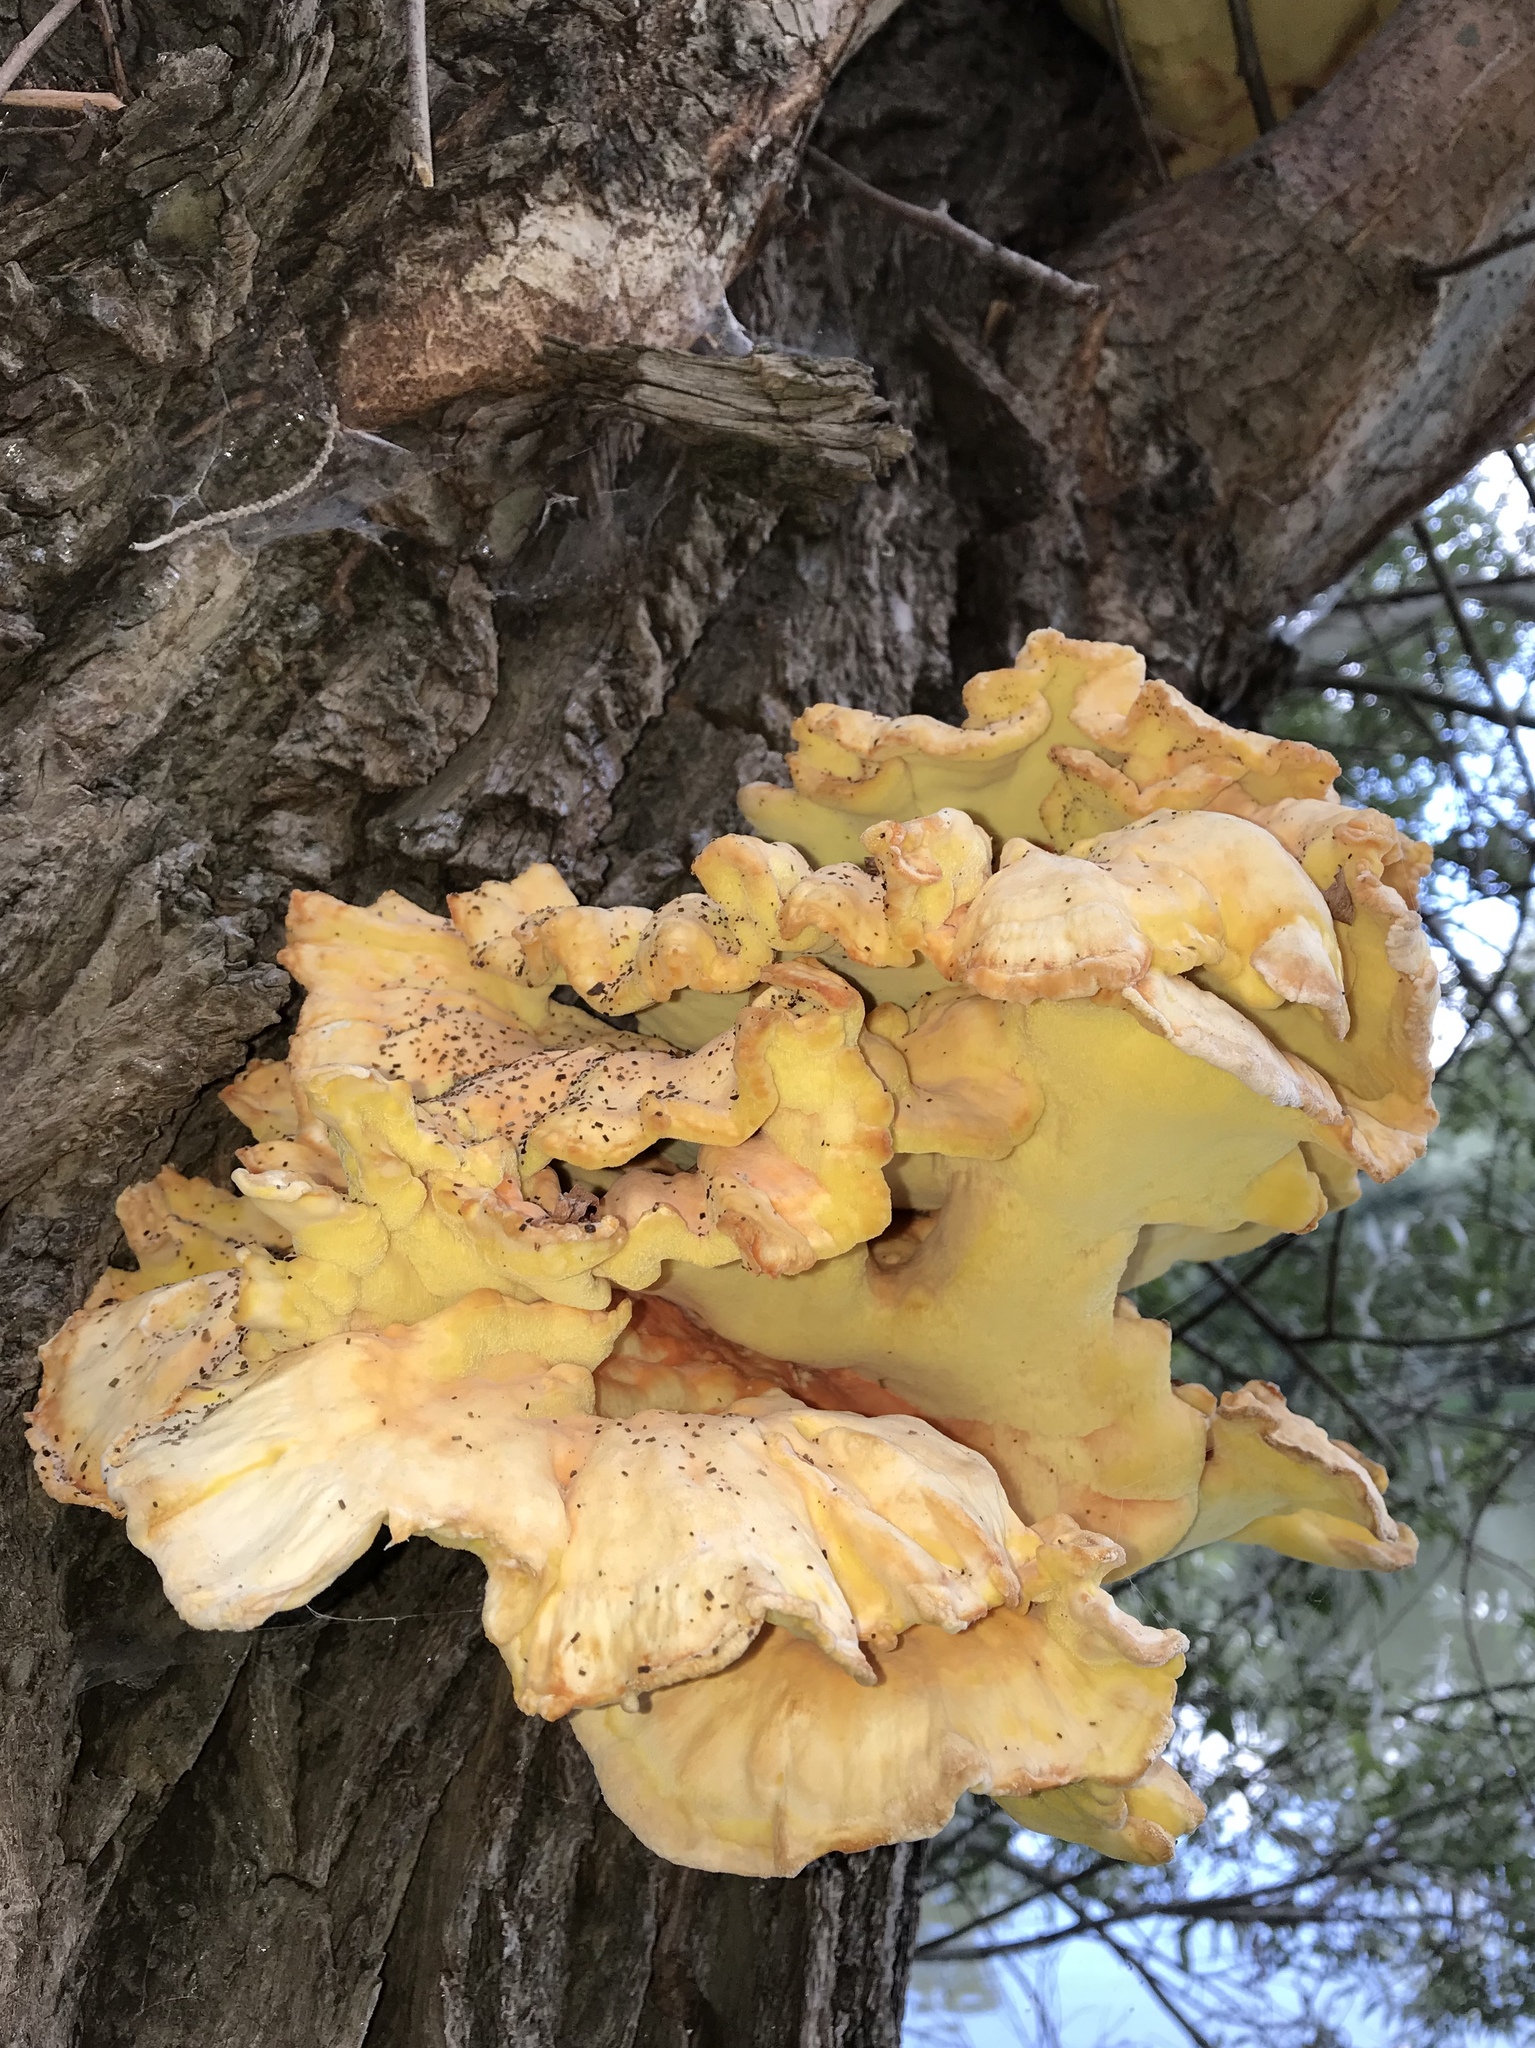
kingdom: Fungi
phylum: Basidiomycota
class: Agaricomycetes
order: Polyporales
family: Laetiporaceae
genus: Laetiporus
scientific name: Laetiporus sulphureus
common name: Chicken of the woods
